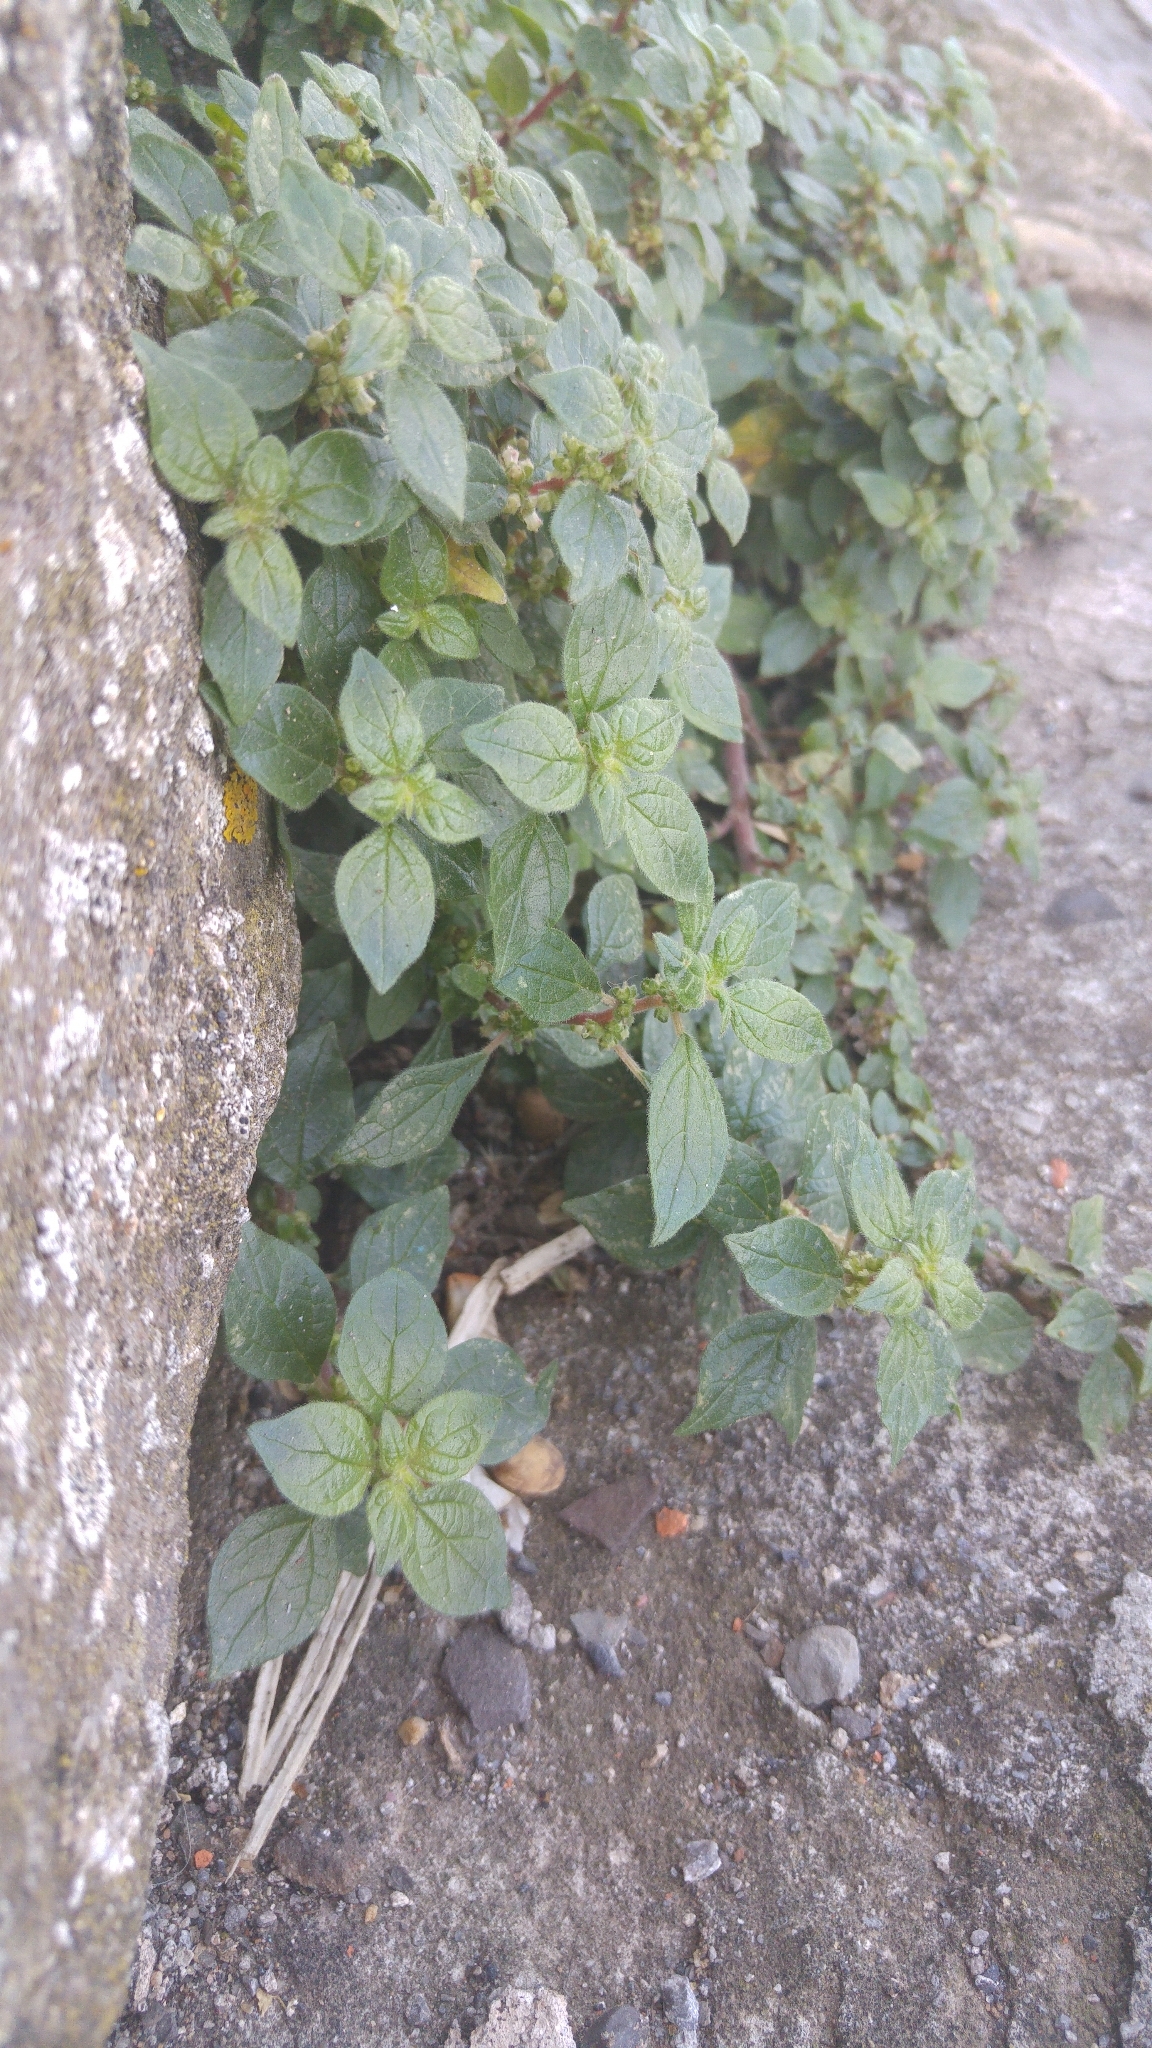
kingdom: Plantae
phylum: Tracheophyta
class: Magnoliopsida
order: Rosales
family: Urticaceae
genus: Parietaria
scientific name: Parietaria judaica
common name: Pellitory-of-the-wall
